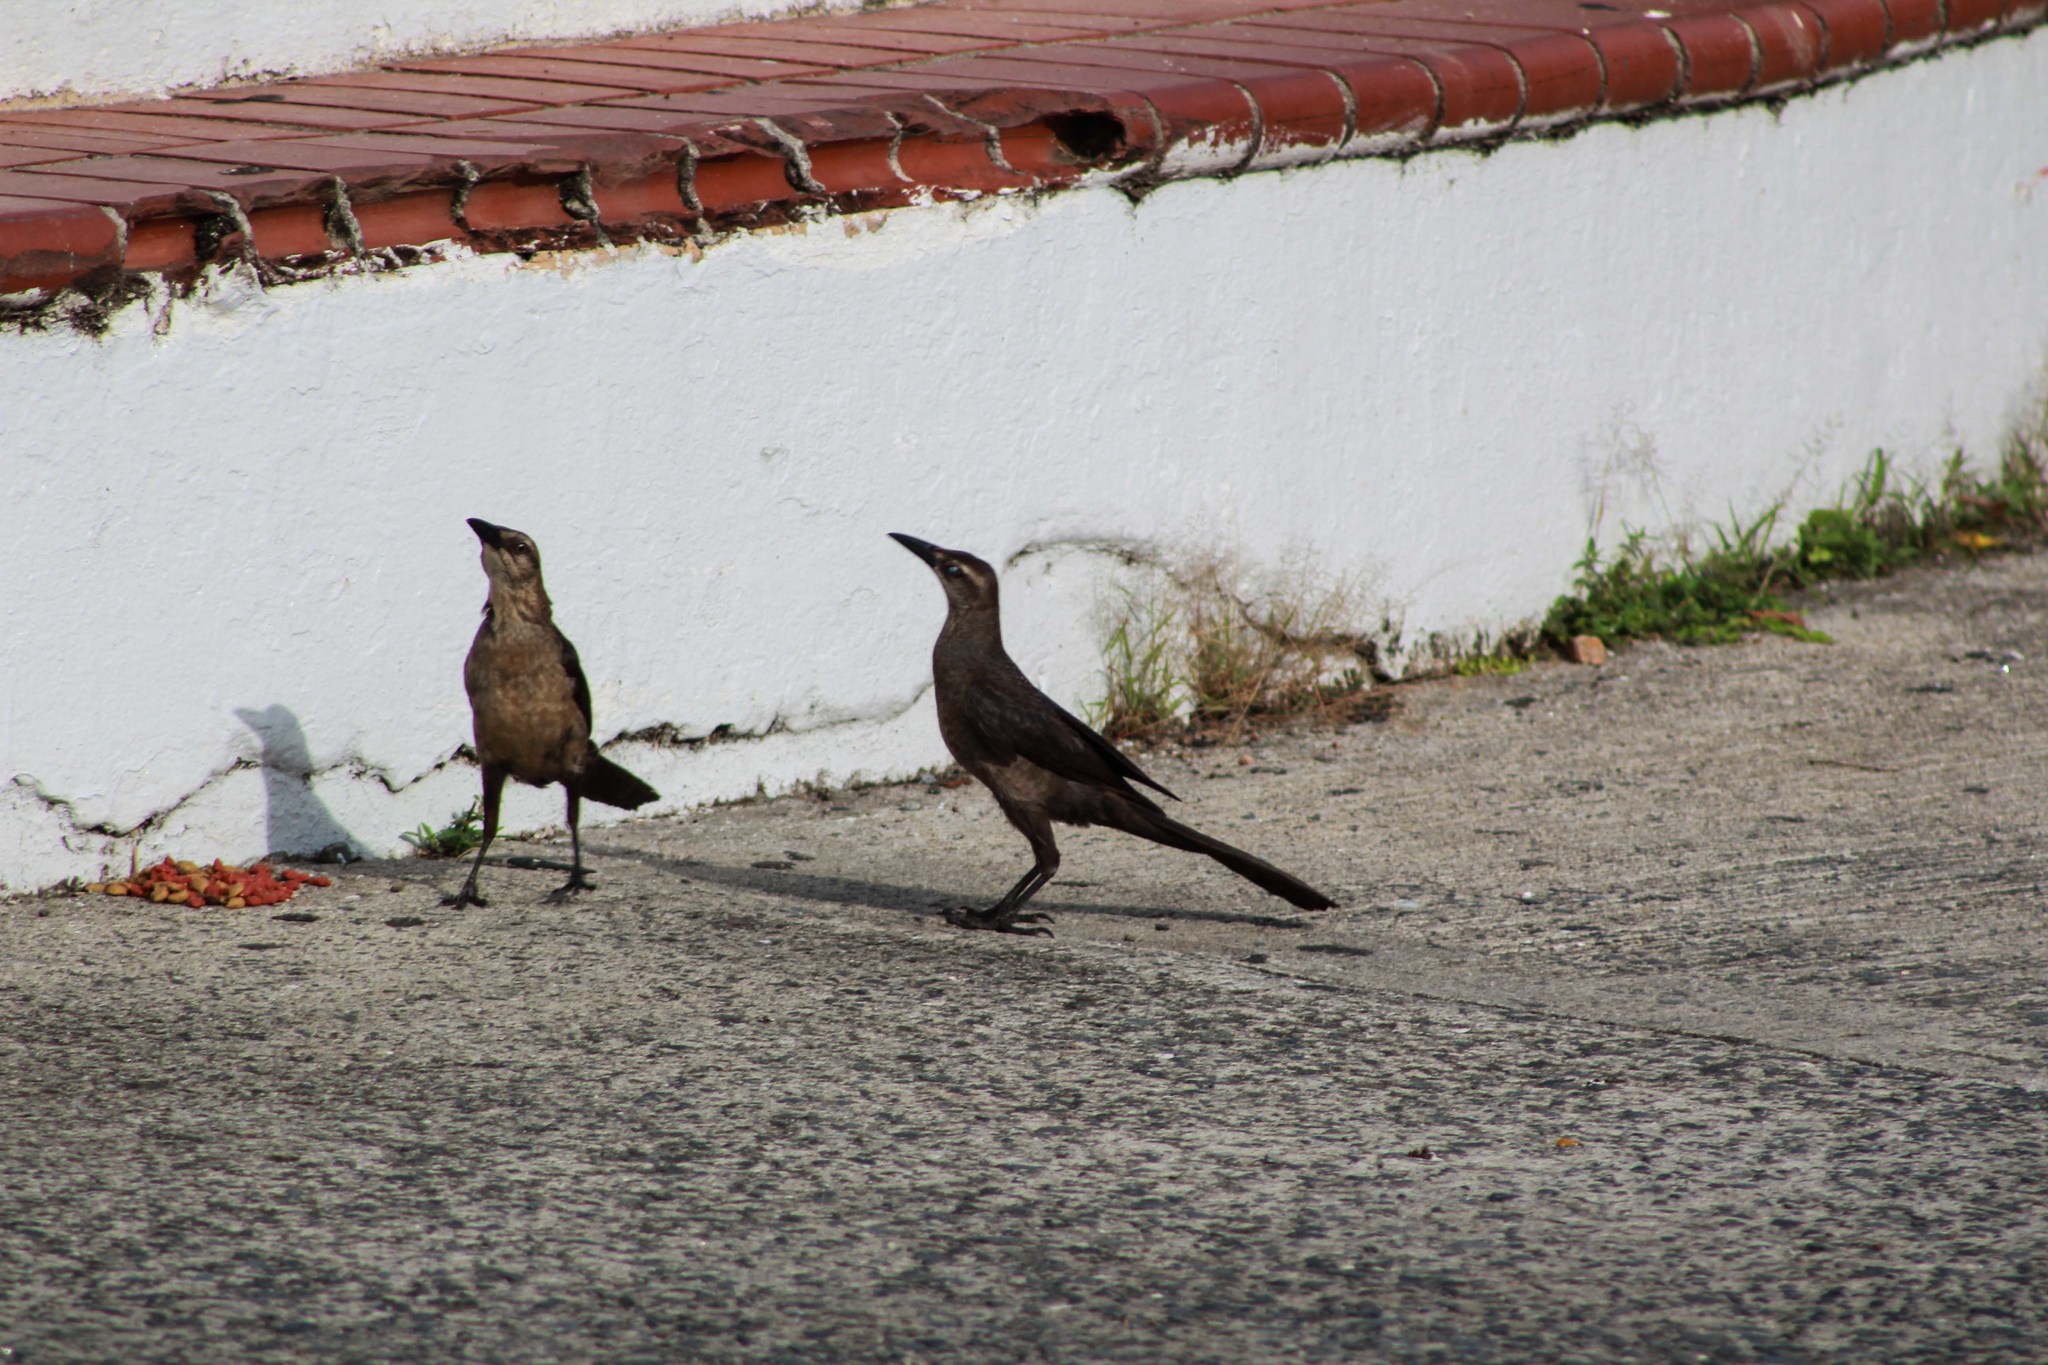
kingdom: Animalia
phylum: Chordata
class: Aves
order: Passeriformes
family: Icteridae
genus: Quiscalus
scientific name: Quiscalus mexicanus
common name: Great-tailed grackle
